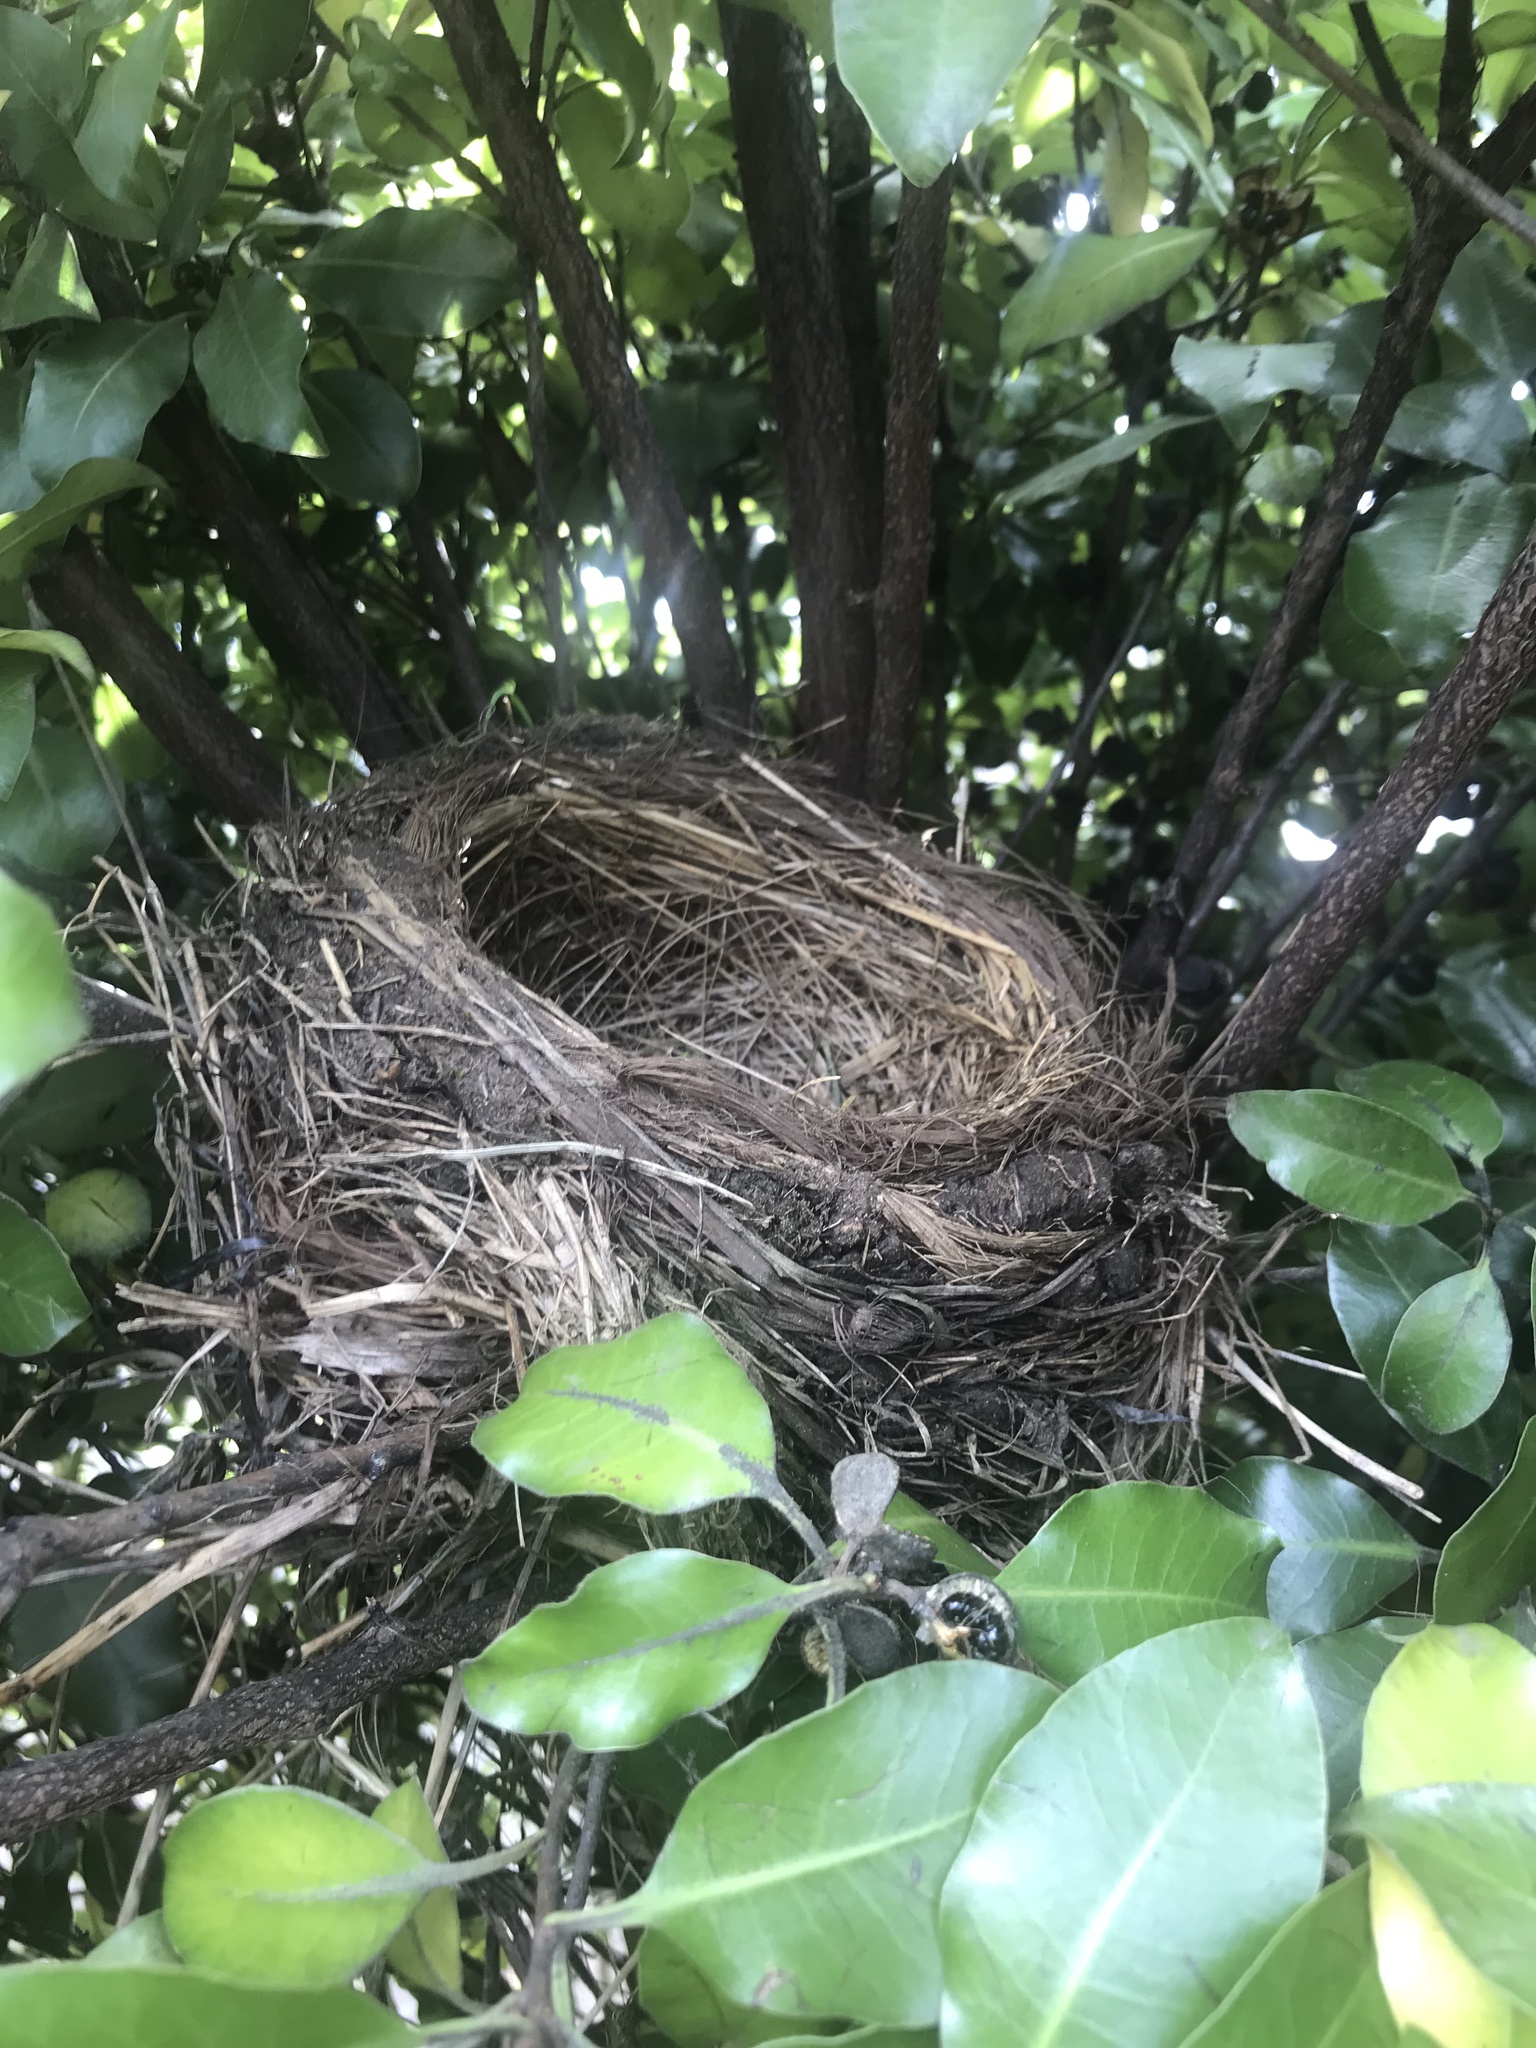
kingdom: Animalia
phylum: Chordata
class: Aves
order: Passeriformes
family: Turdidae
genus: Turdus
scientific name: Turdus merula
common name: Common blackbird
